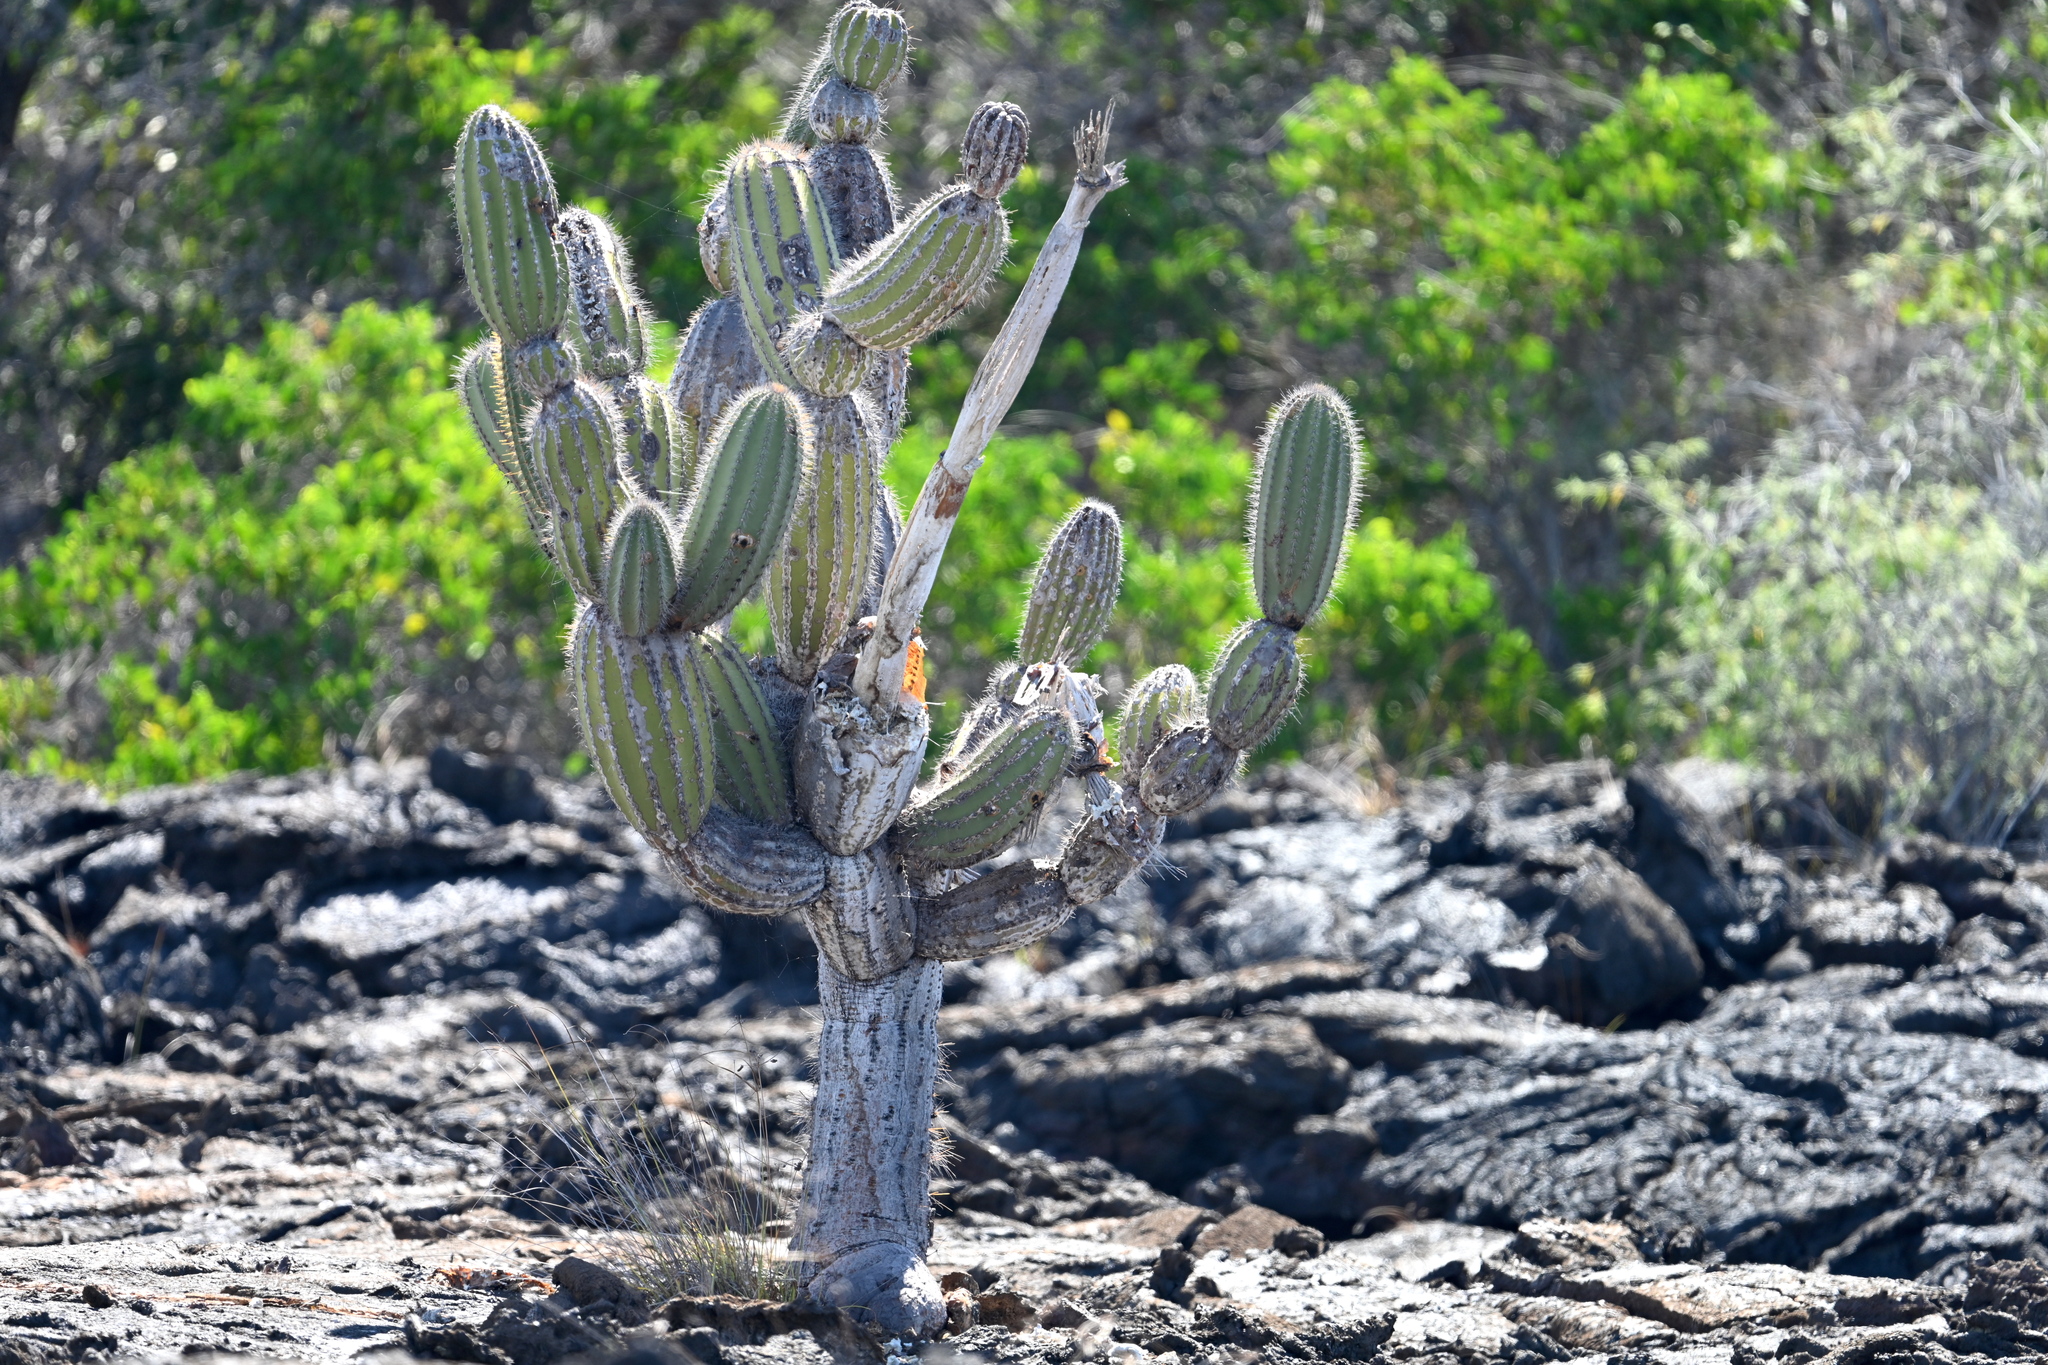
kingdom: Plantae
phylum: Tracheophyta
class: Magnoliopsida
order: Caryophyllales
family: Cactaceae
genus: Jasminocereus
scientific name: Jasminocereus thouarsii
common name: Candelabra cactus
